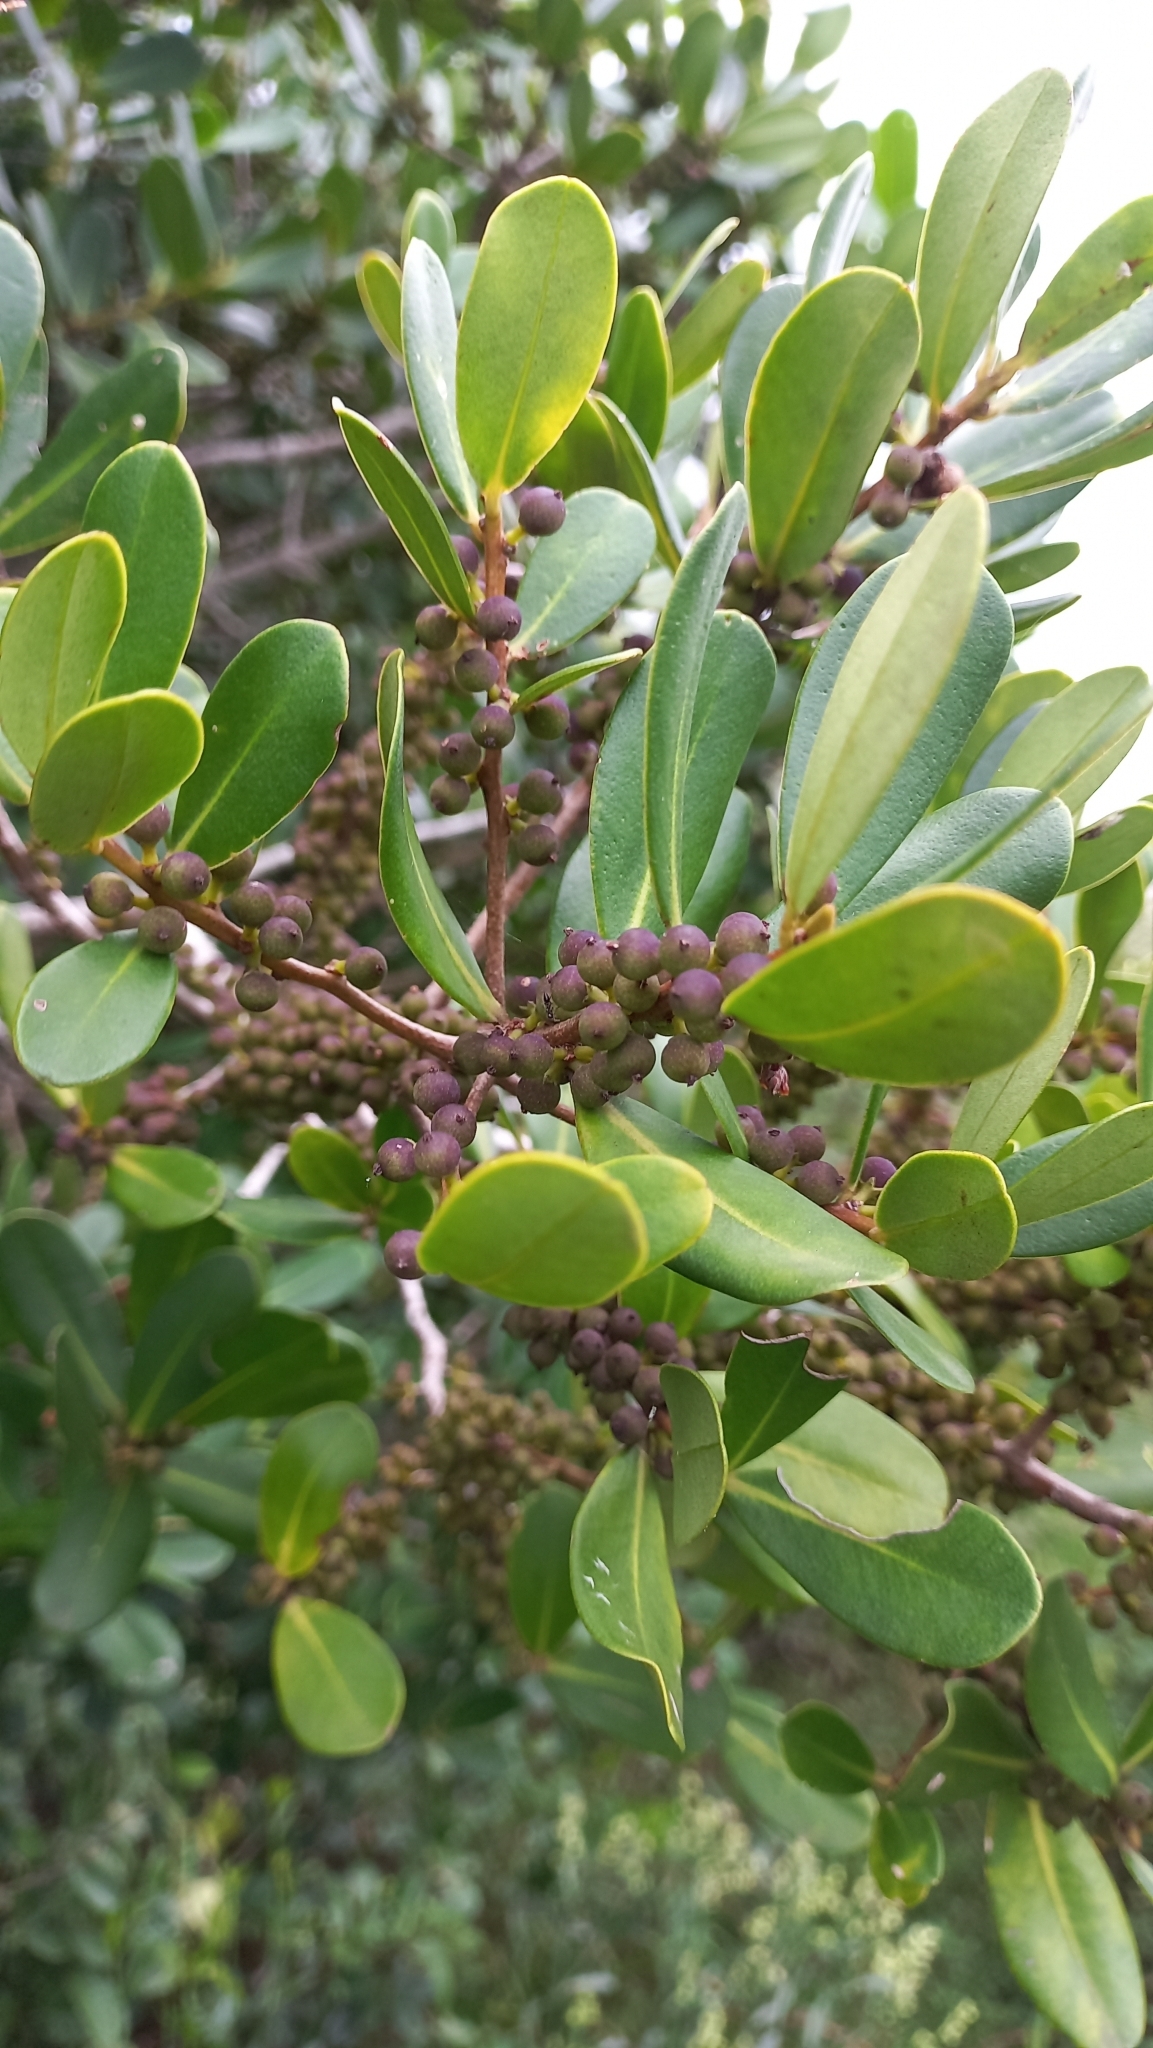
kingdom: Plantae
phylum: Tracheophyta
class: Magnoliopsida
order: Ericales
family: Primulaceae
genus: Myrsine
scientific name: Myrsine parvifolia
